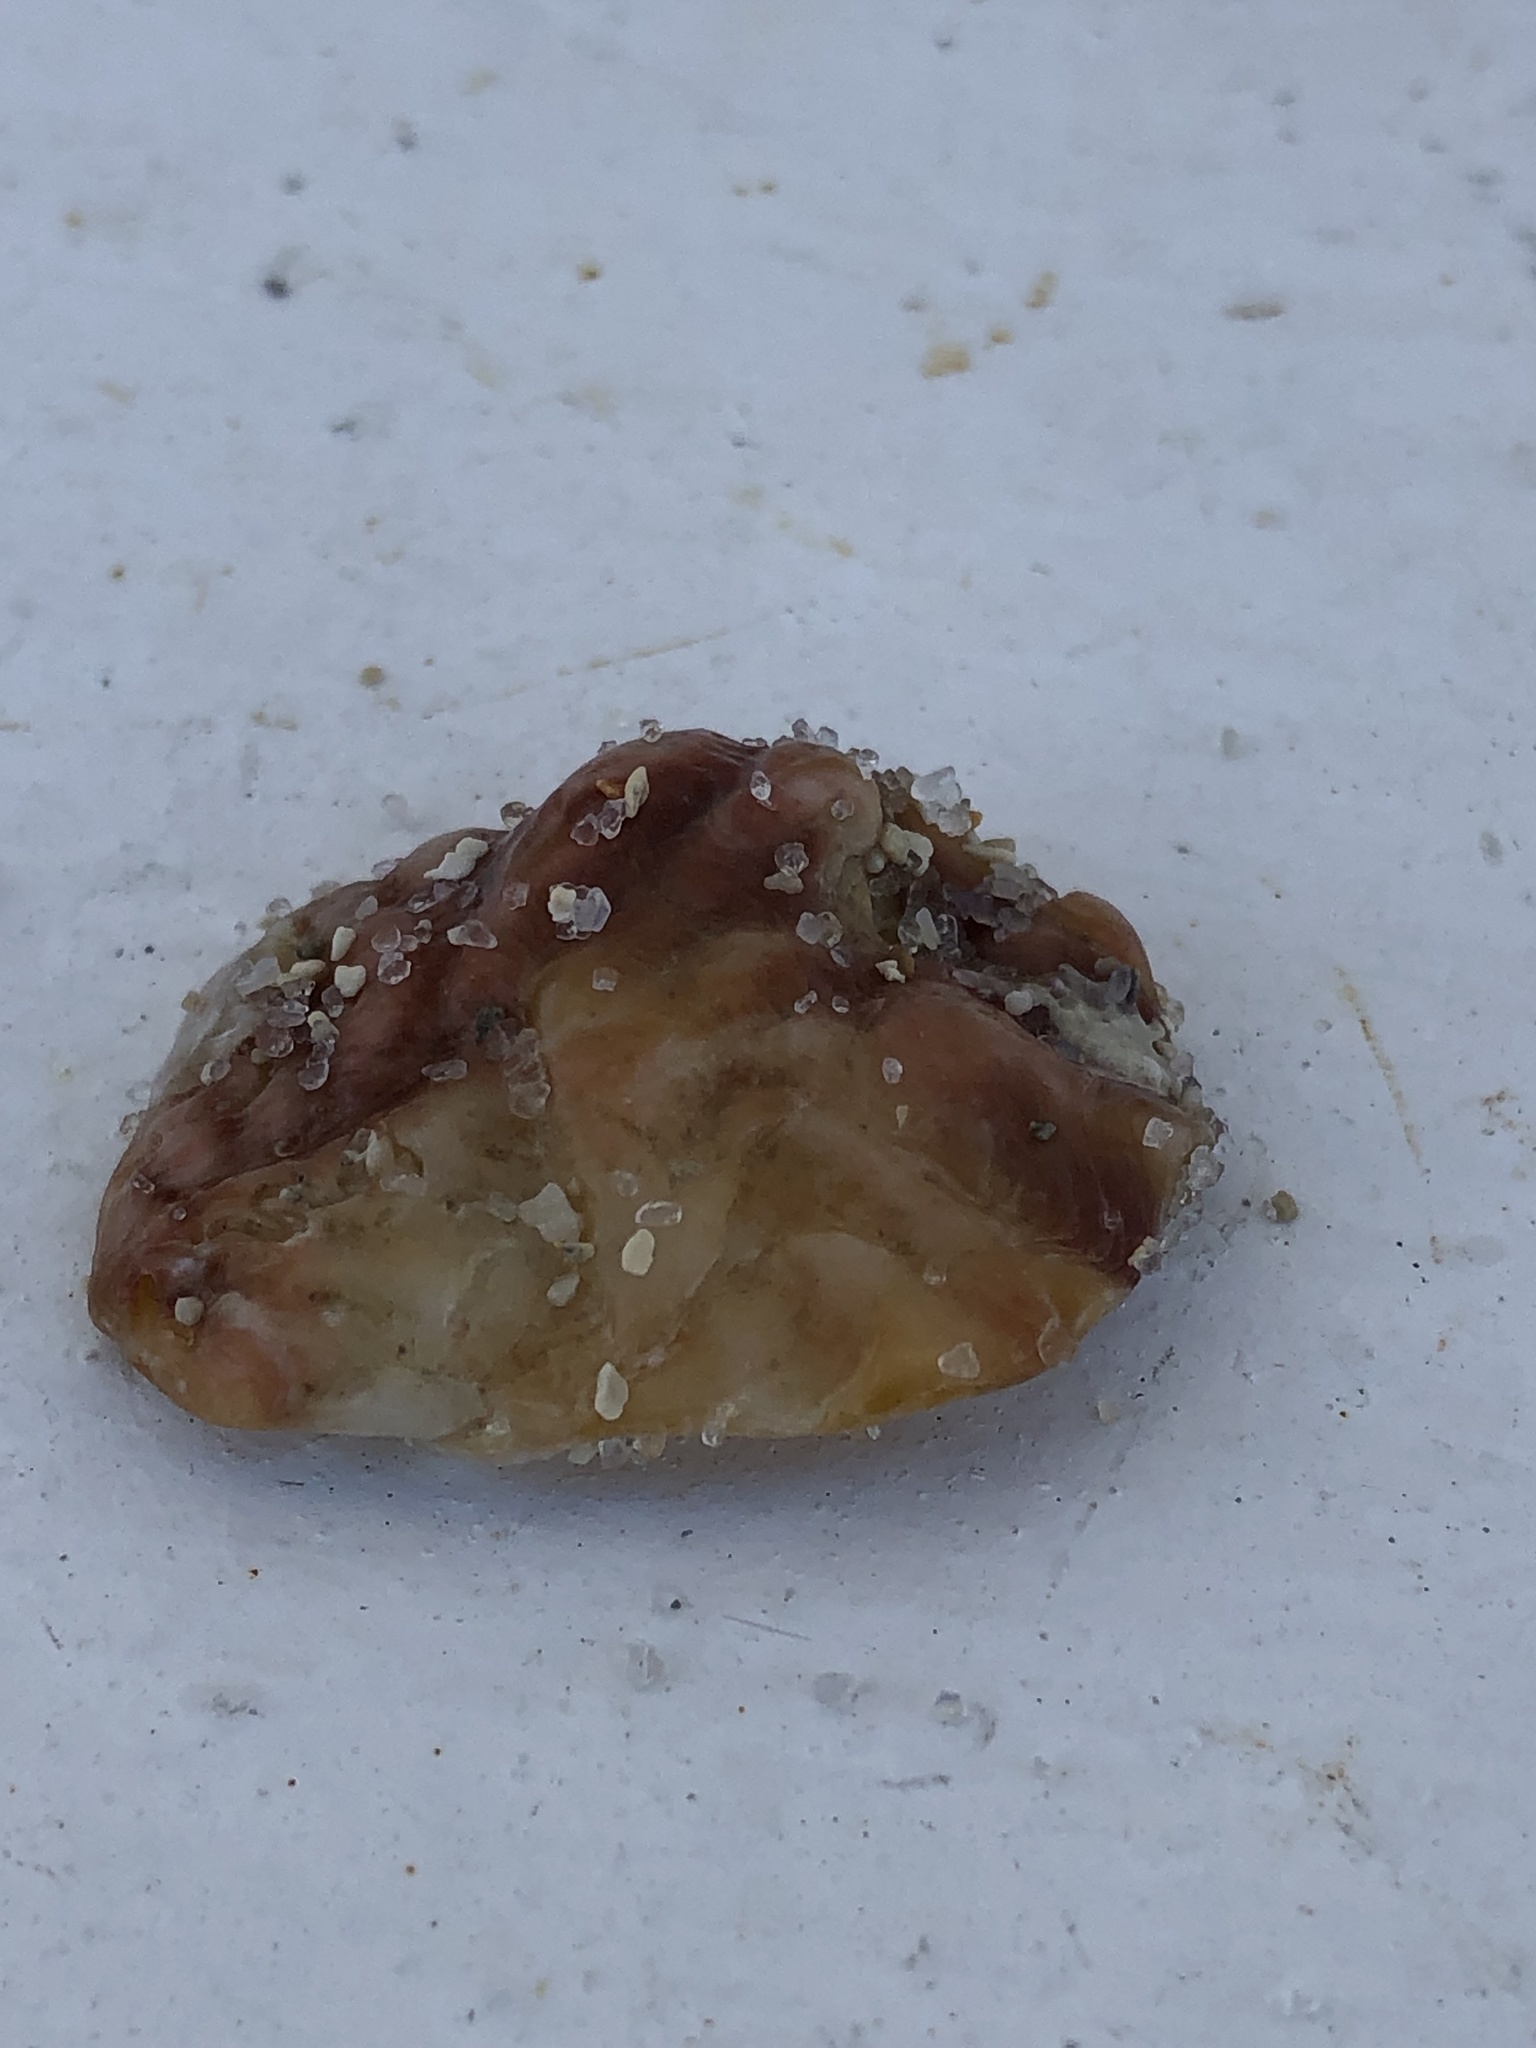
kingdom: Animalia
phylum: Mollusca
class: Bivalvia
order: Ostreida
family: Ostreidae
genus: Dendostrea
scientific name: Dendostrea frons
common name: Frond oyster
